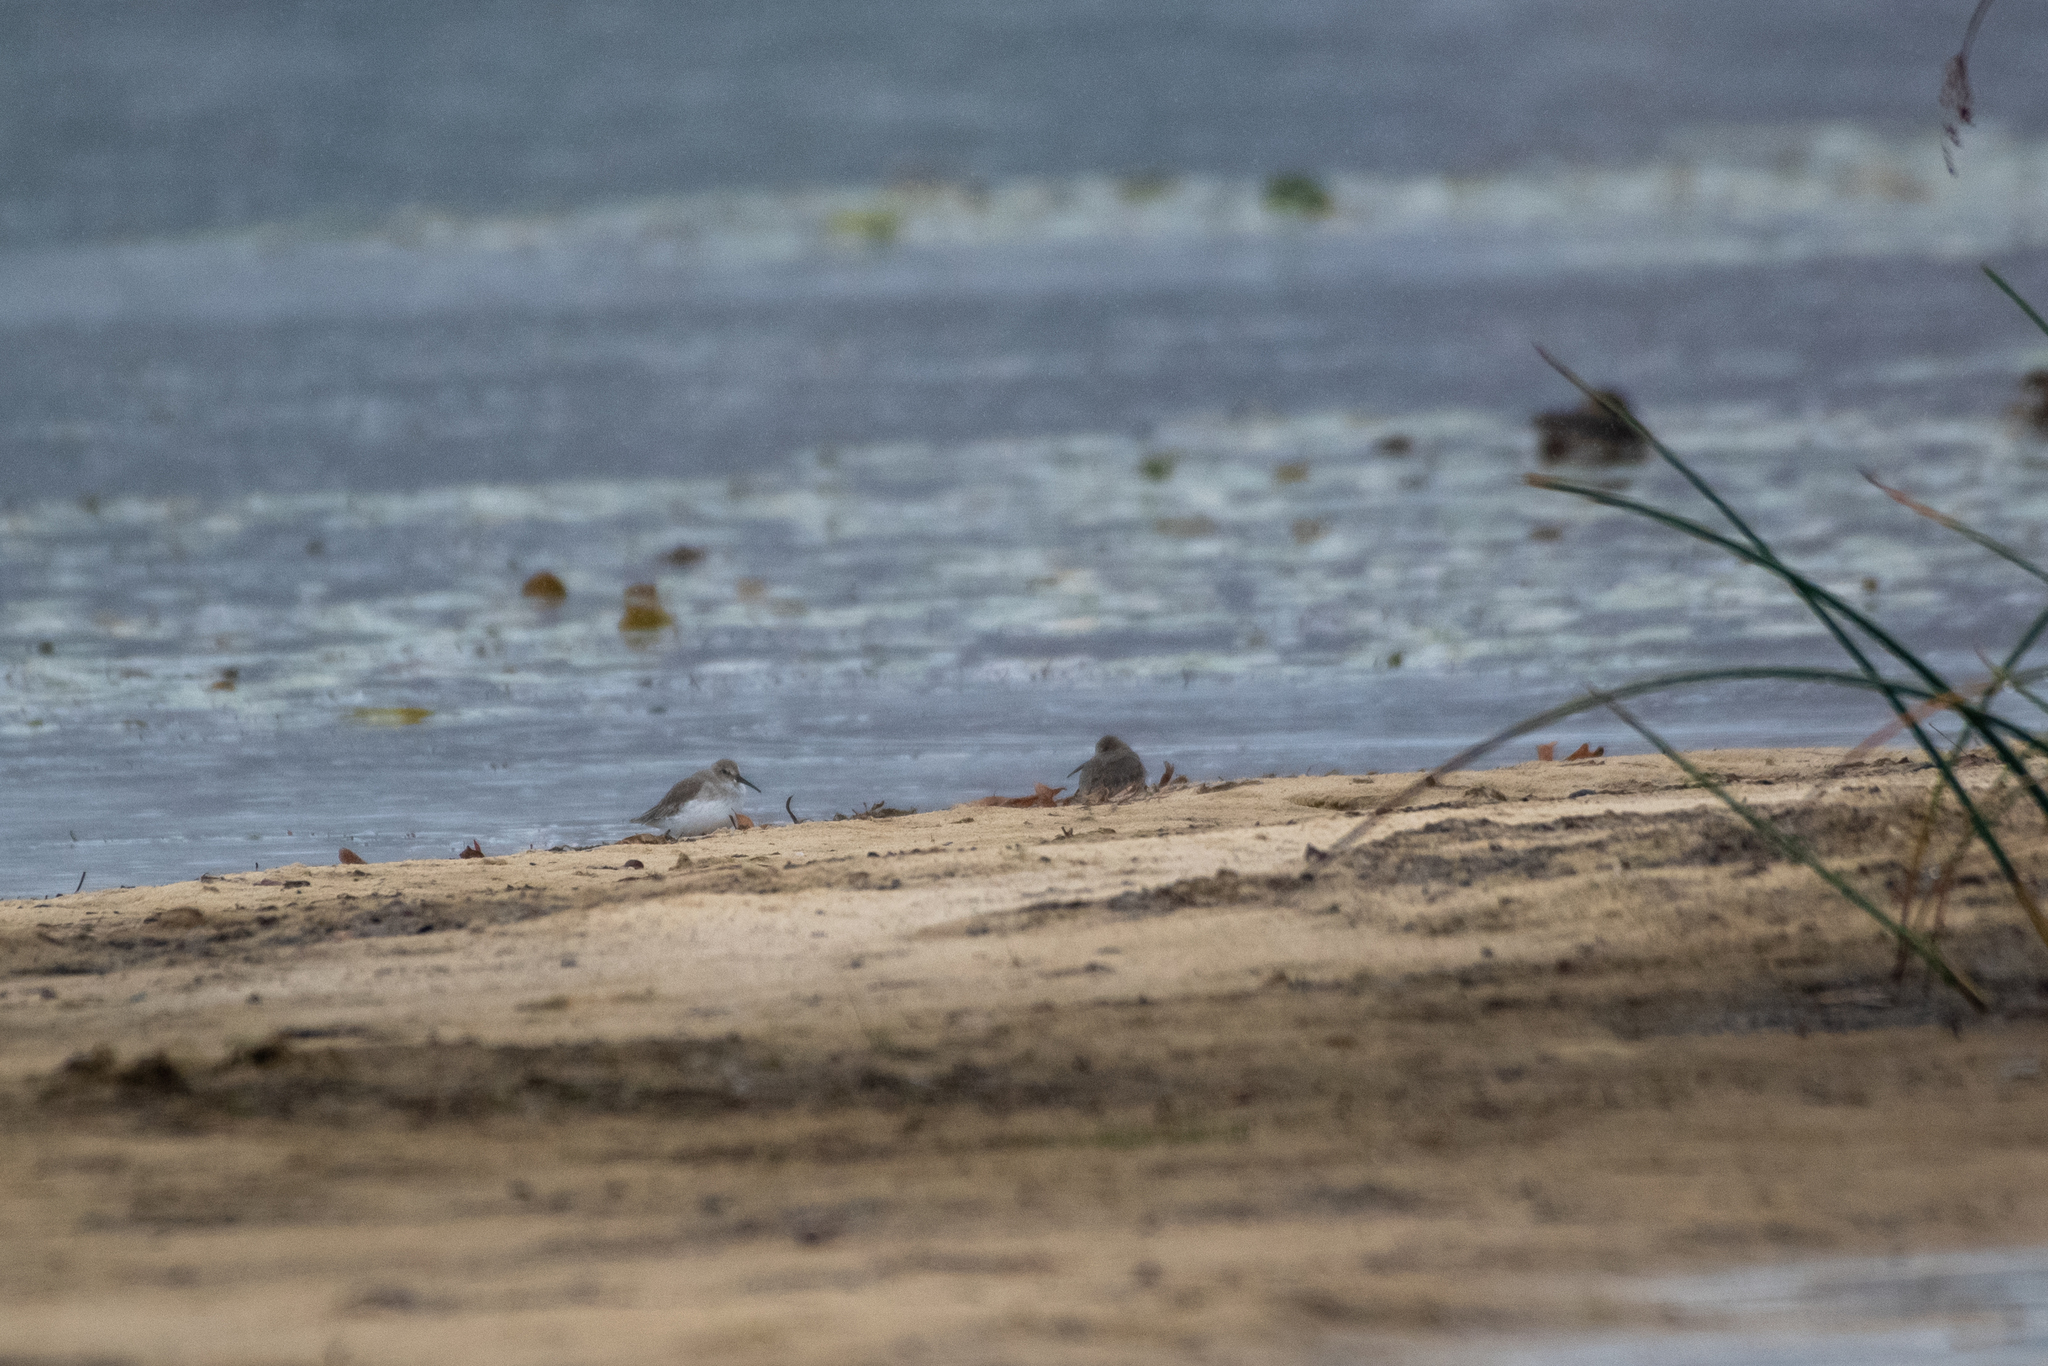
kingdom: Animalia
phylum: Chordata
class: Aves
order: Charadriiformes
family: Scolopacidae
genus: Calidris
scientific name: Calidris alpina
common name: Dunlin
